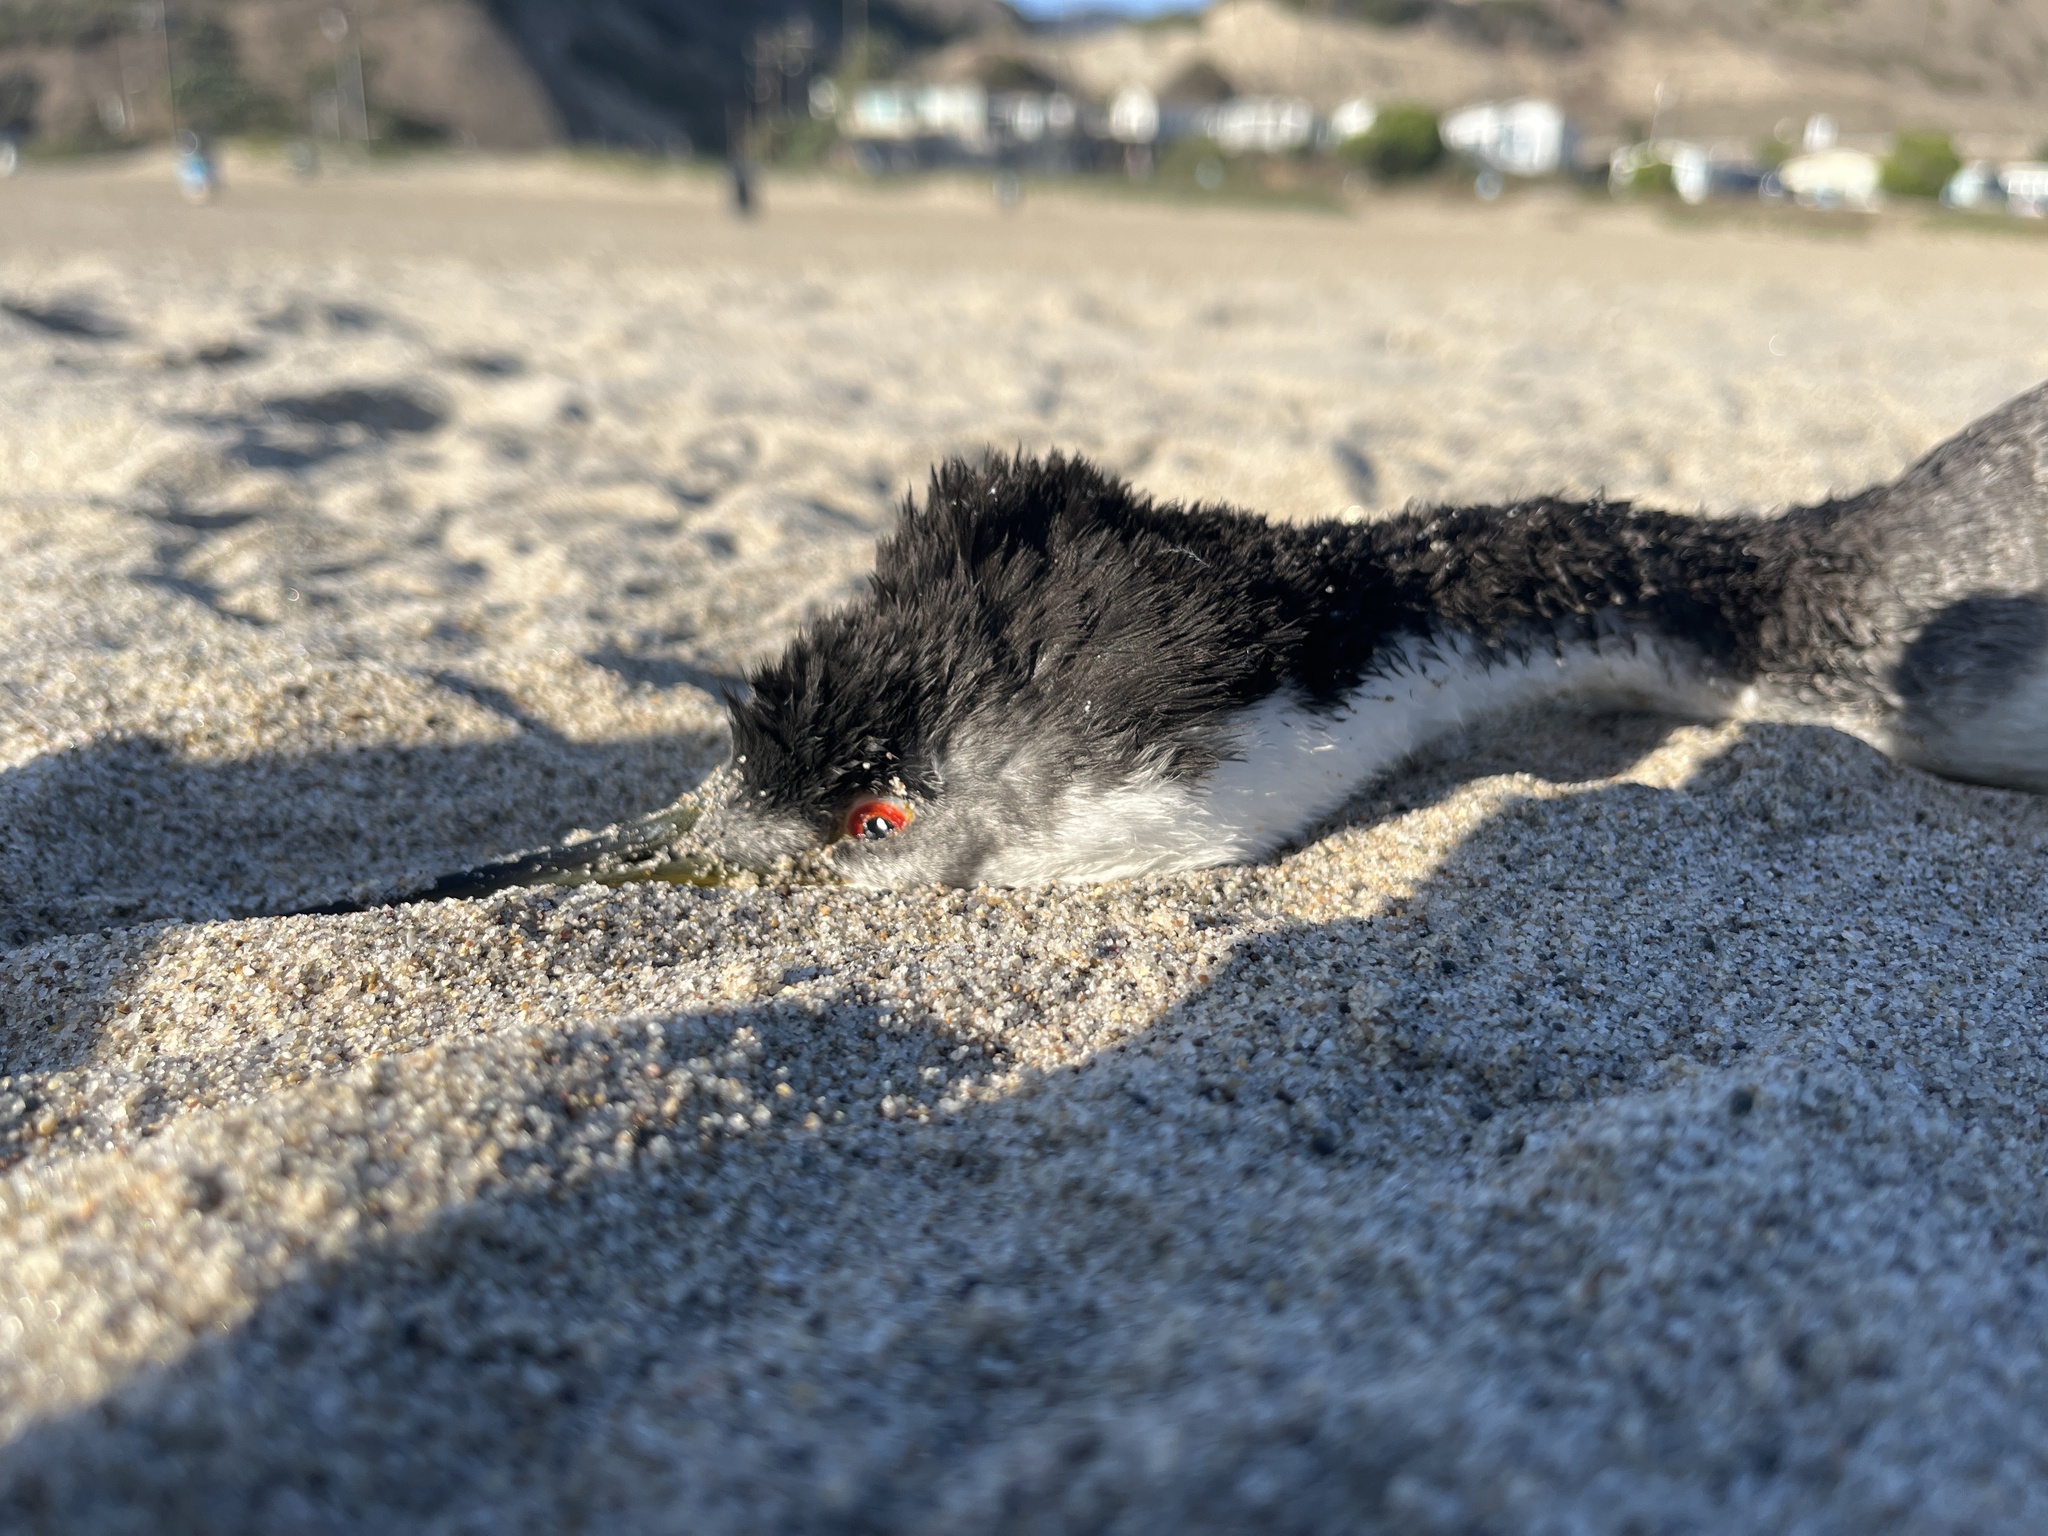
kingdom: Animalia
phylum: Chordata
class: Aves
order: Podicipediformes
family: Podicipedidae
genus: Aechmophorus
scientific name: Aechmophorus occidentalis
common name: Western grebe
